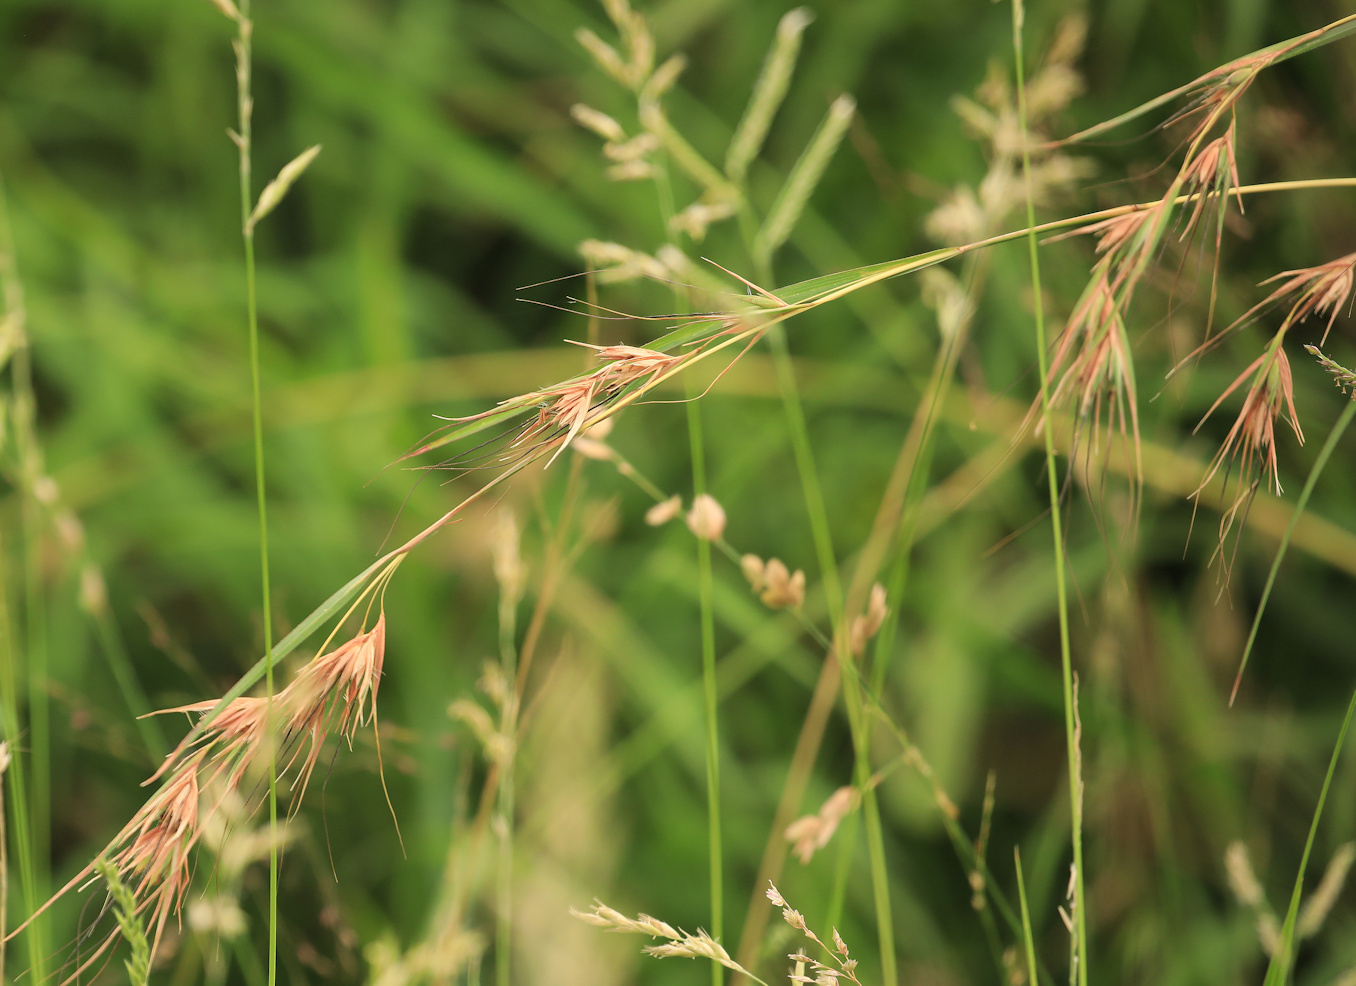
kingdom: Plantae
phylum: Tracheophyta
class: Liliopsida
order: Poales
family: Poaceae
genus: Themeda
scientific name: Themeda triandra
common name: Kangaroo grass
